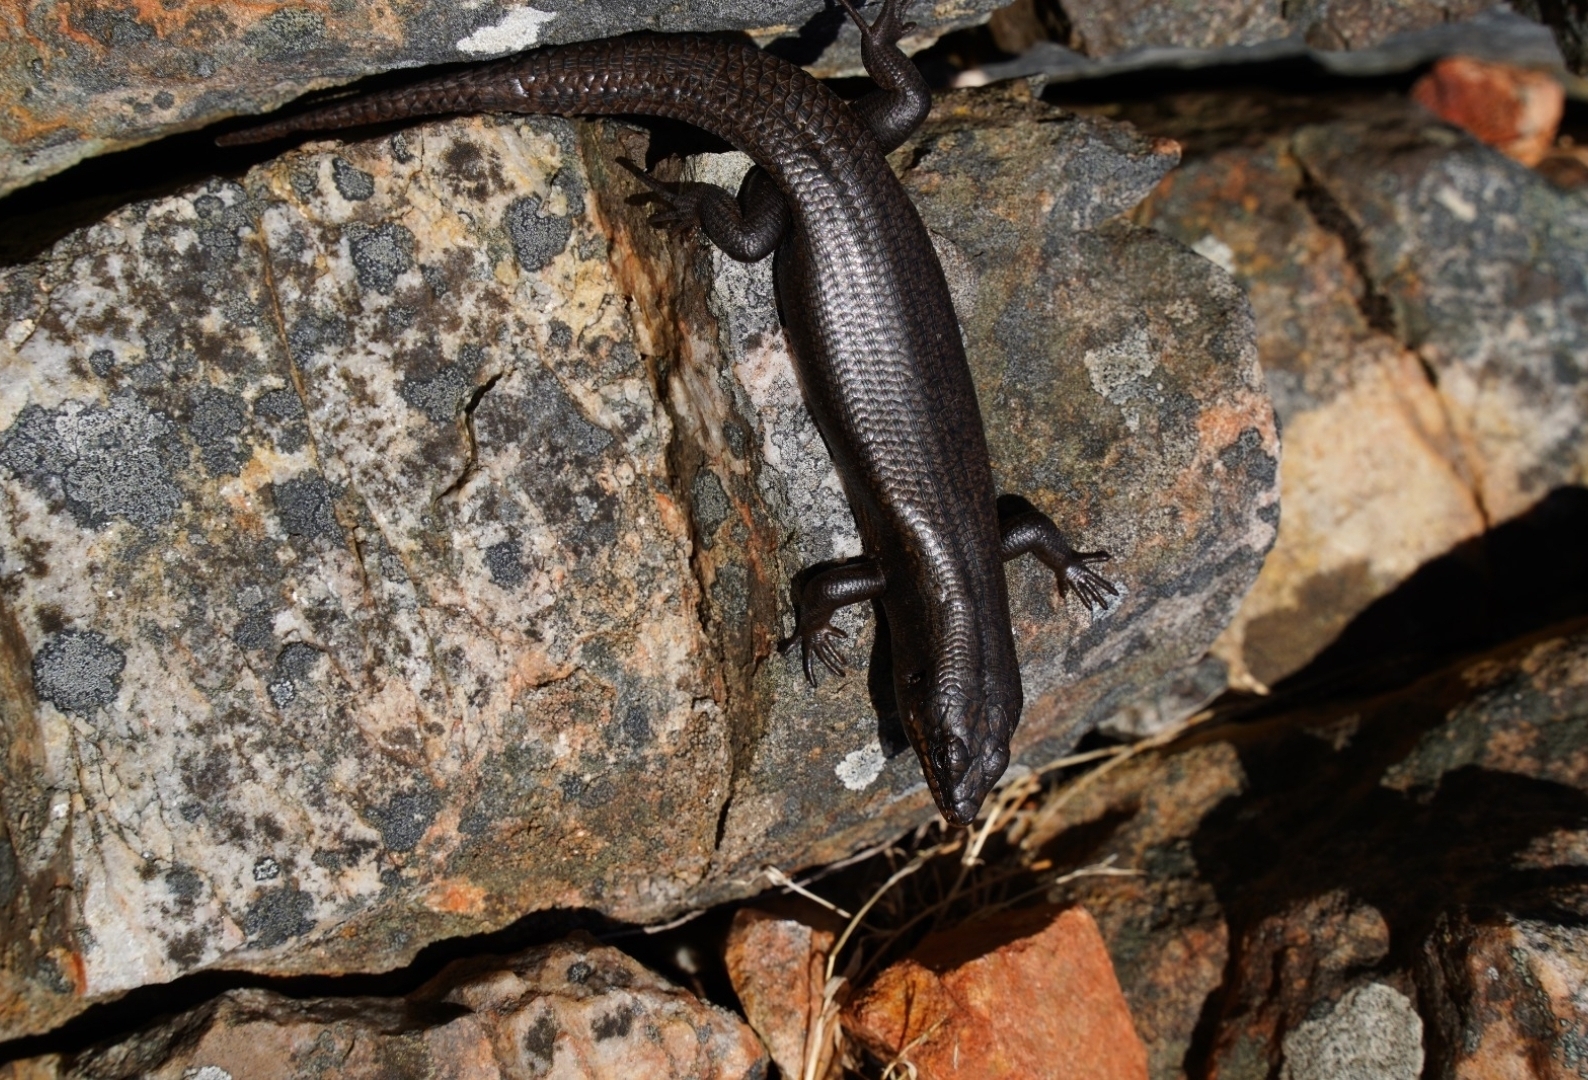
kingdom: Animalia
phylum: Chordata
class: Squamata
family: Scincidae
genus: Egernia
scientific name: Egernia striolata
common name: Tree skink
